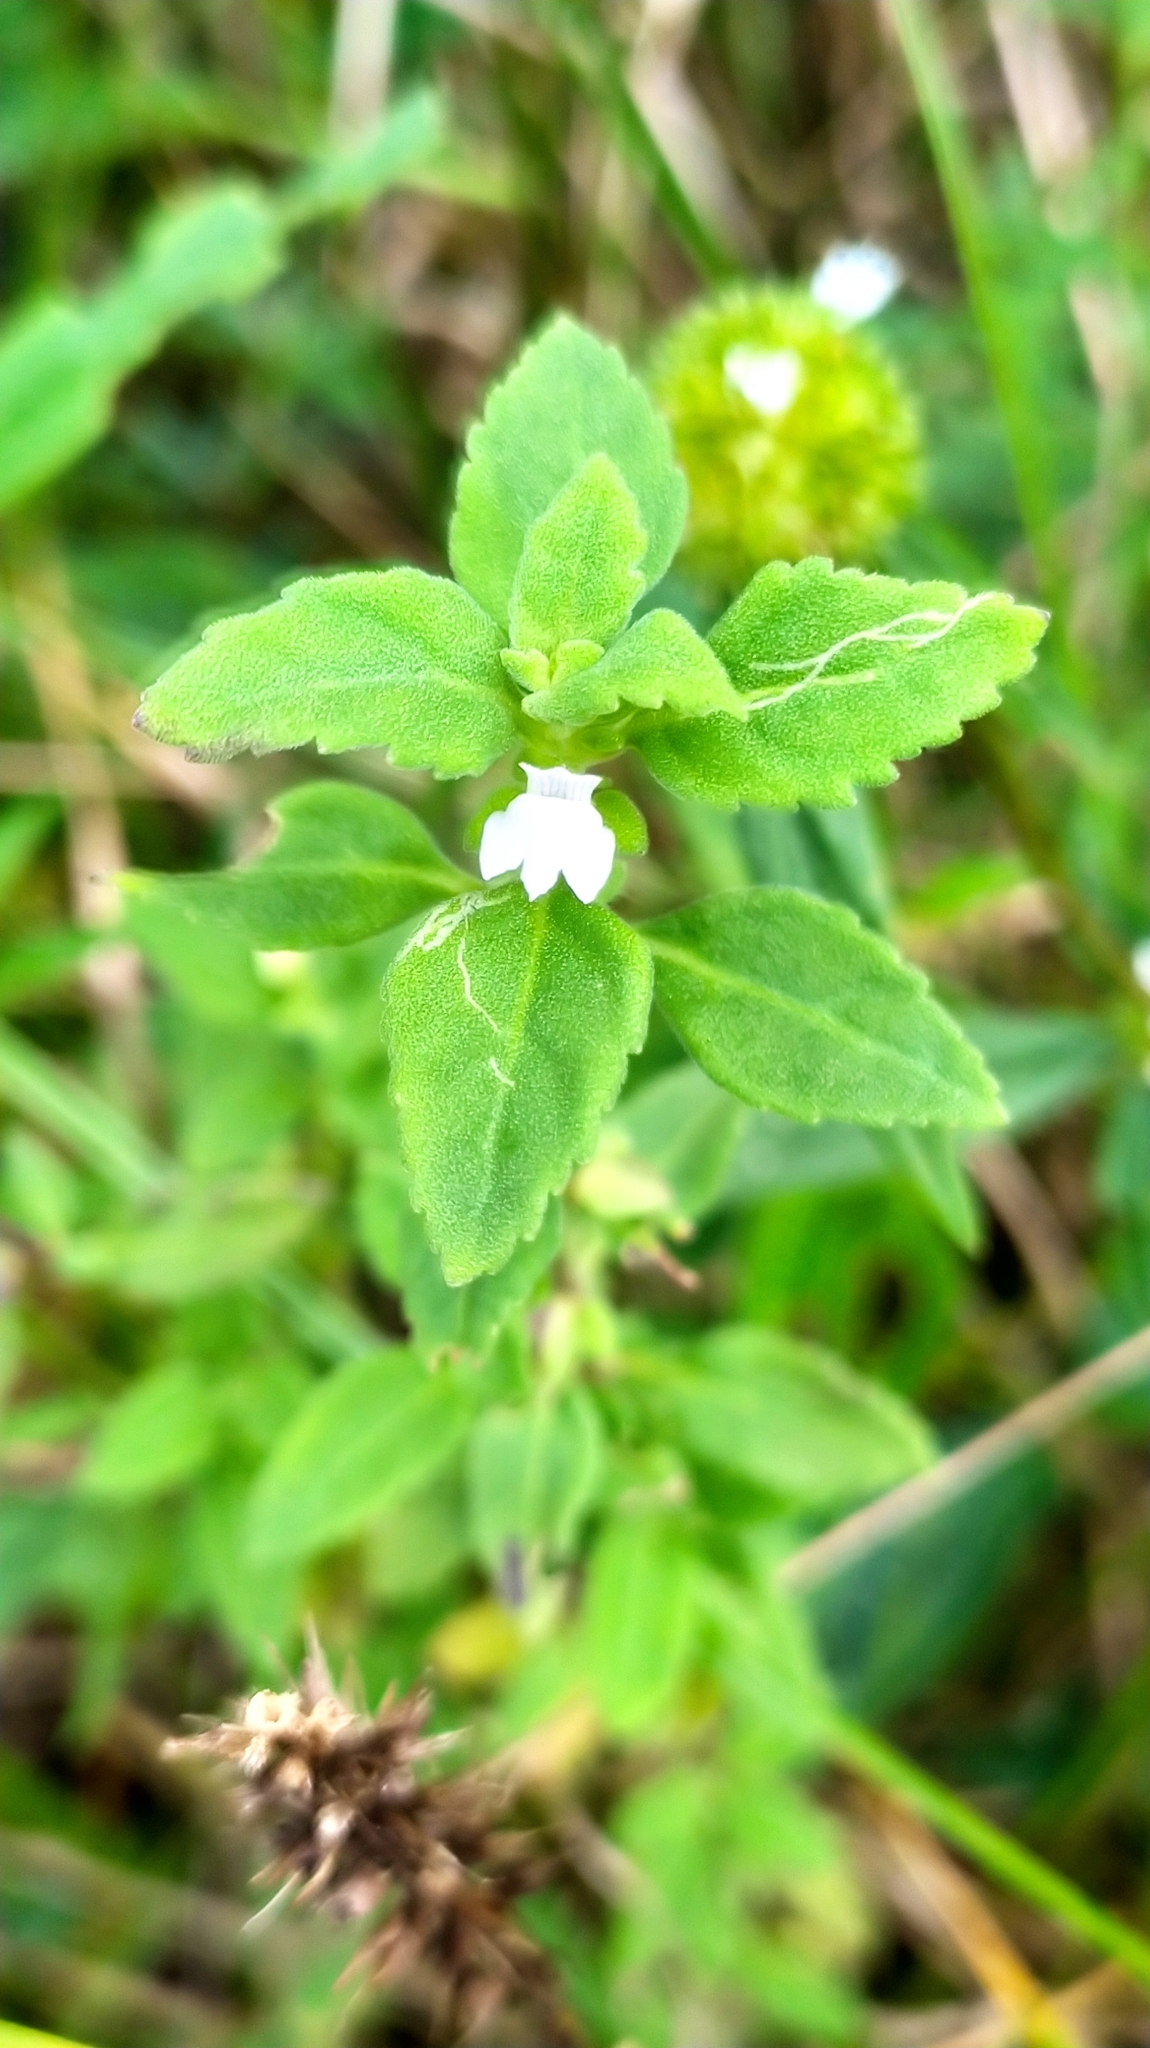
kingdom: Plantae
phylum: Tracheophyta
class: Magnoliopsida
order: Lamiales
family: Plantaginaceae
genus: Matourea
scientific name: Matourea pratensis
